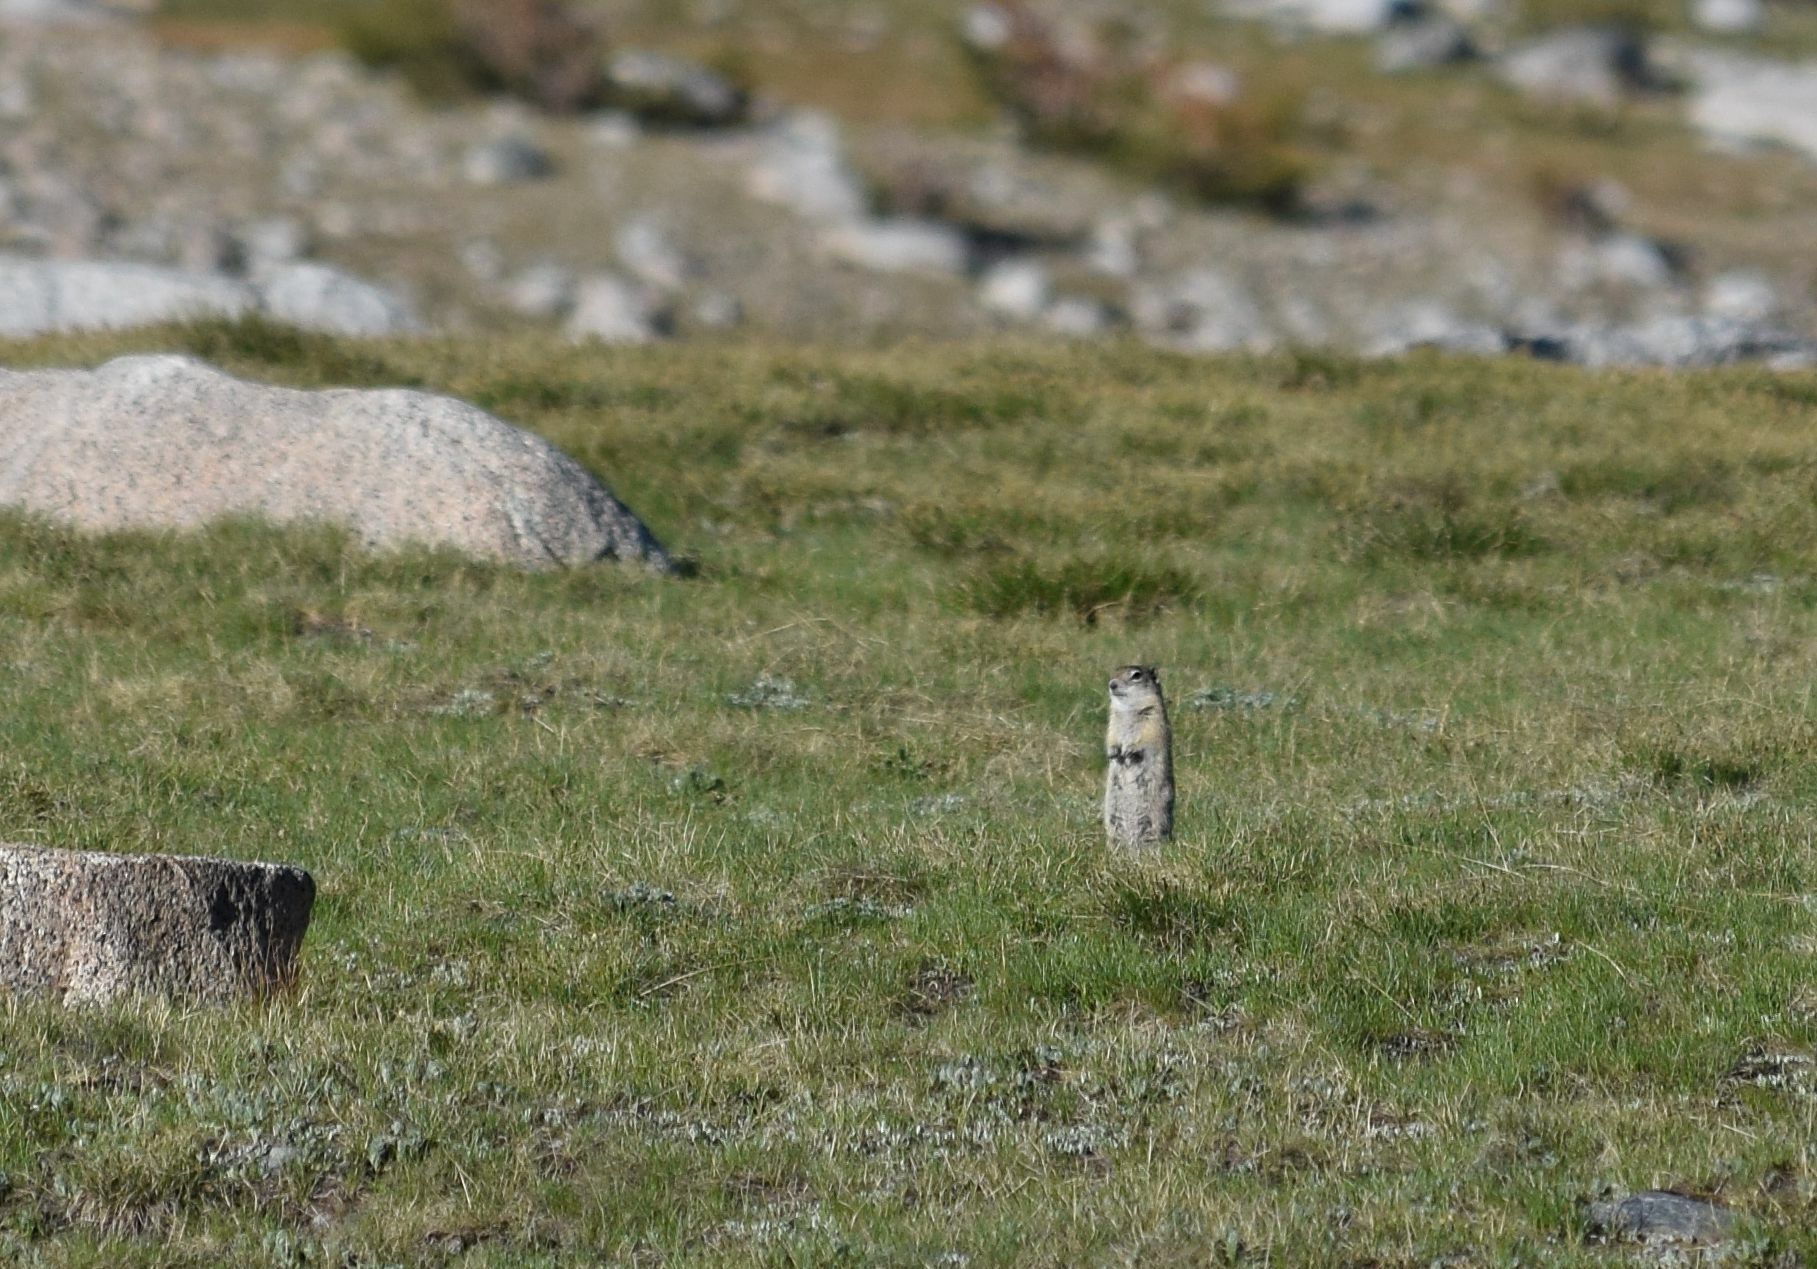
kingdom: Animalia
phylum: Chordata
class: Mammalia
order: Rodentia
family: Sciuridae
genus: Urocitellus
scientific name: Urocitellus beldingi
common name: Belding's ground squirrel
